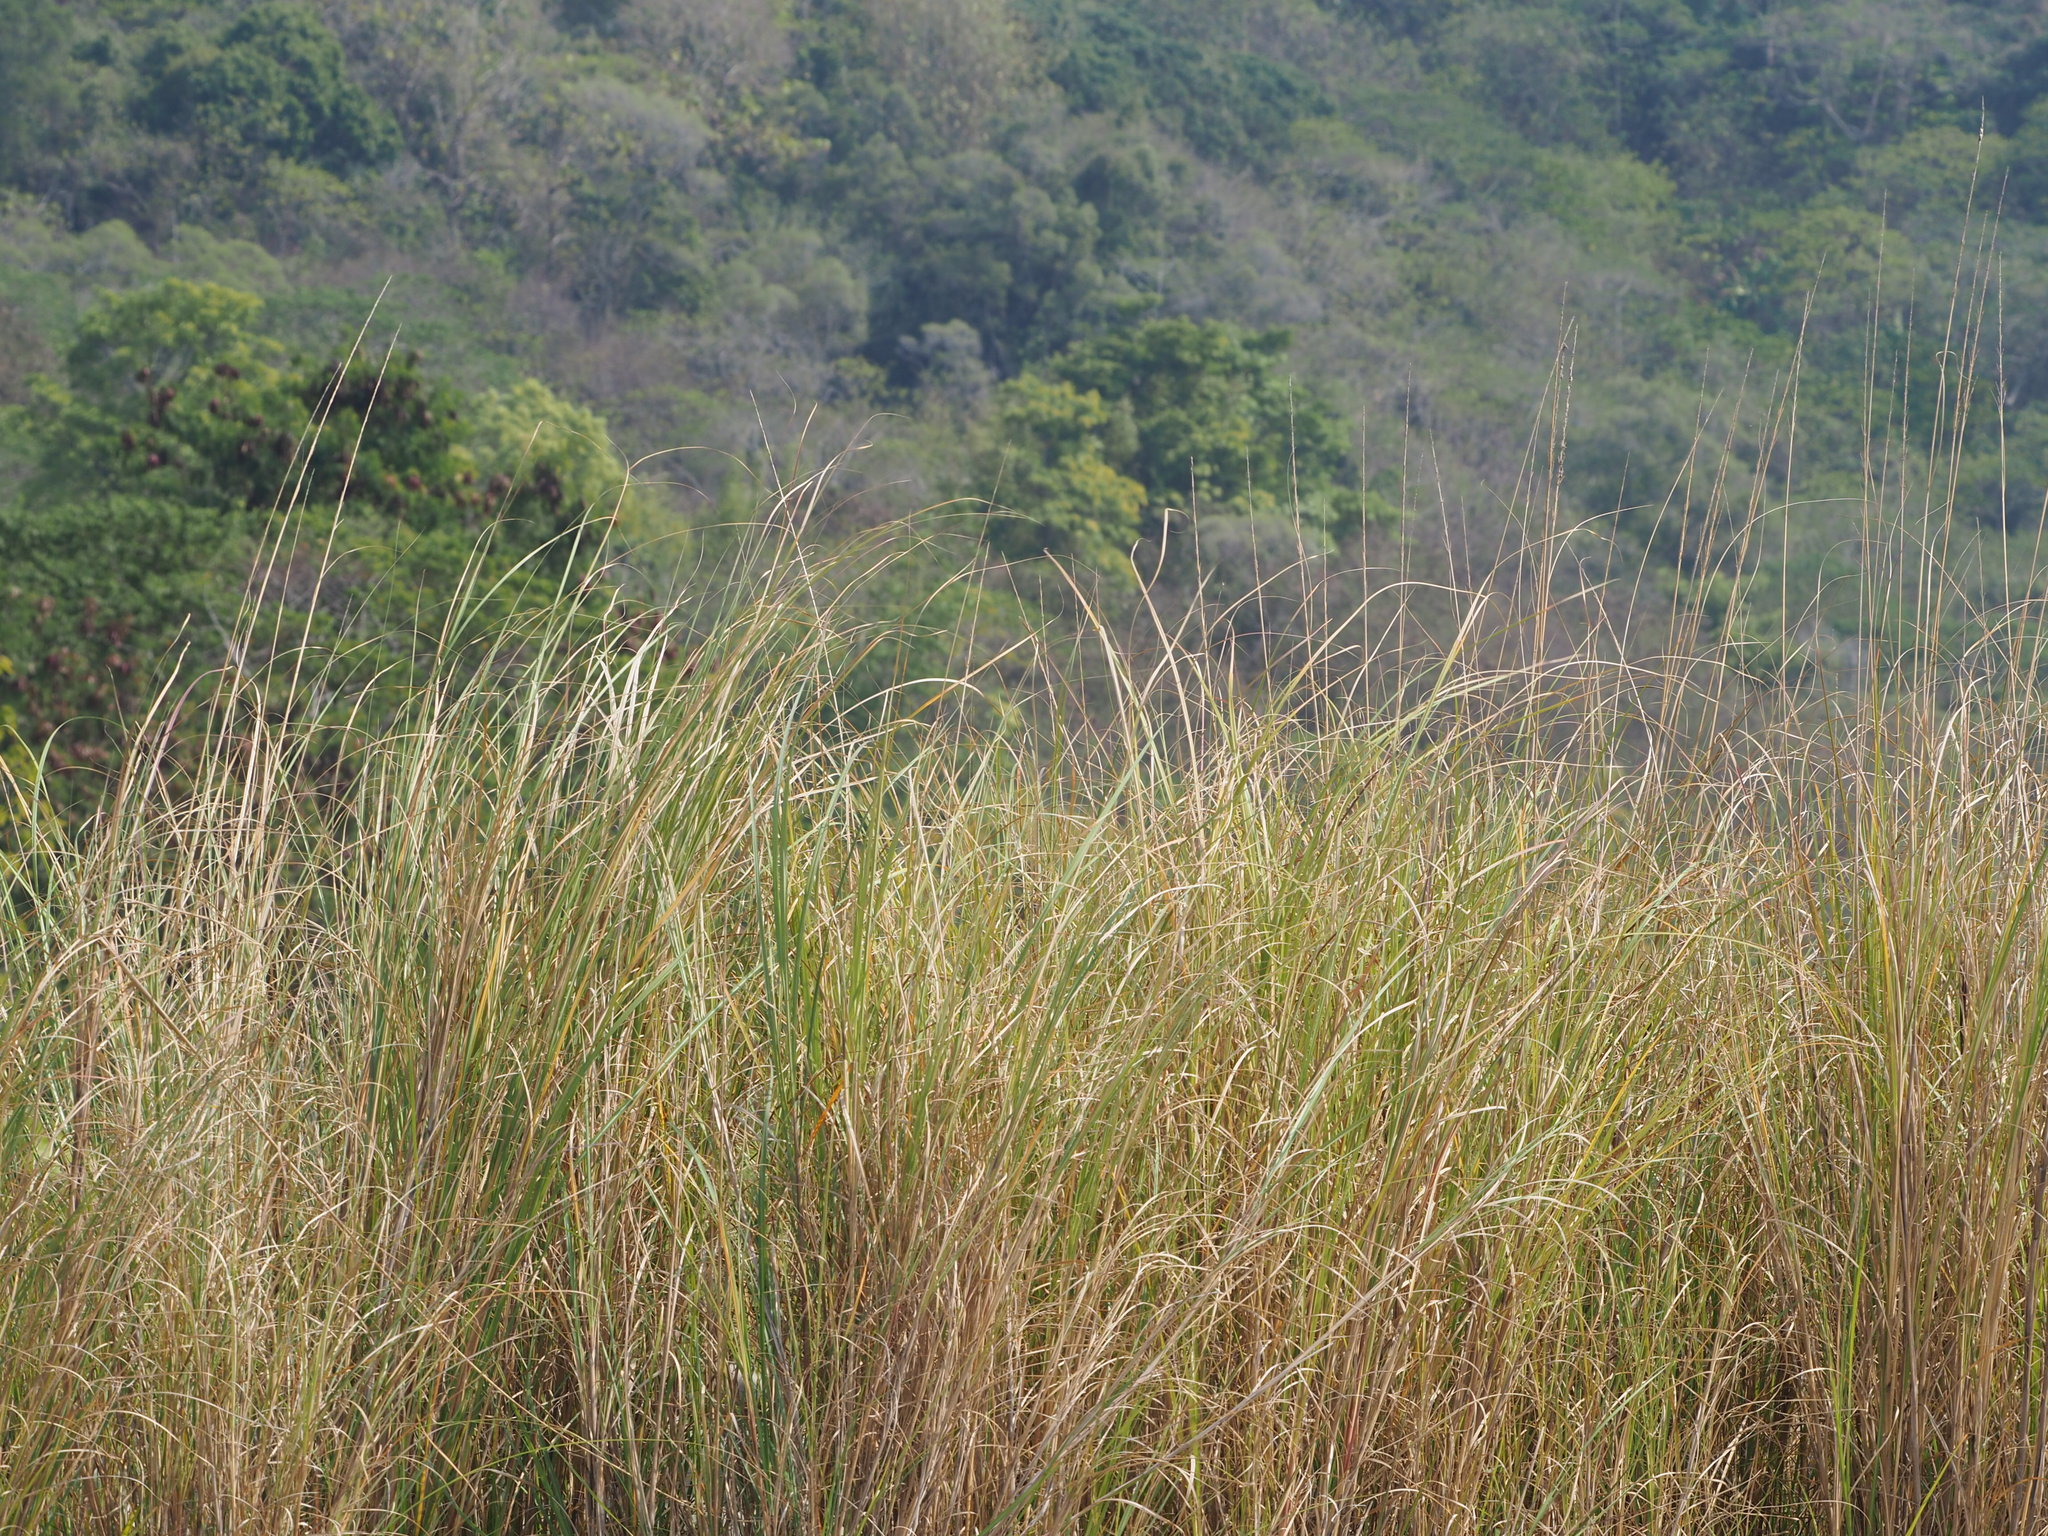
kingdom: Plantae
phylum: Tracheophyta
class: Liliopsida
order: Poales
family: Poaceae
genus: Saccharum
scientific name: Saccharum spontaneum
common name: Wild sugarcane
